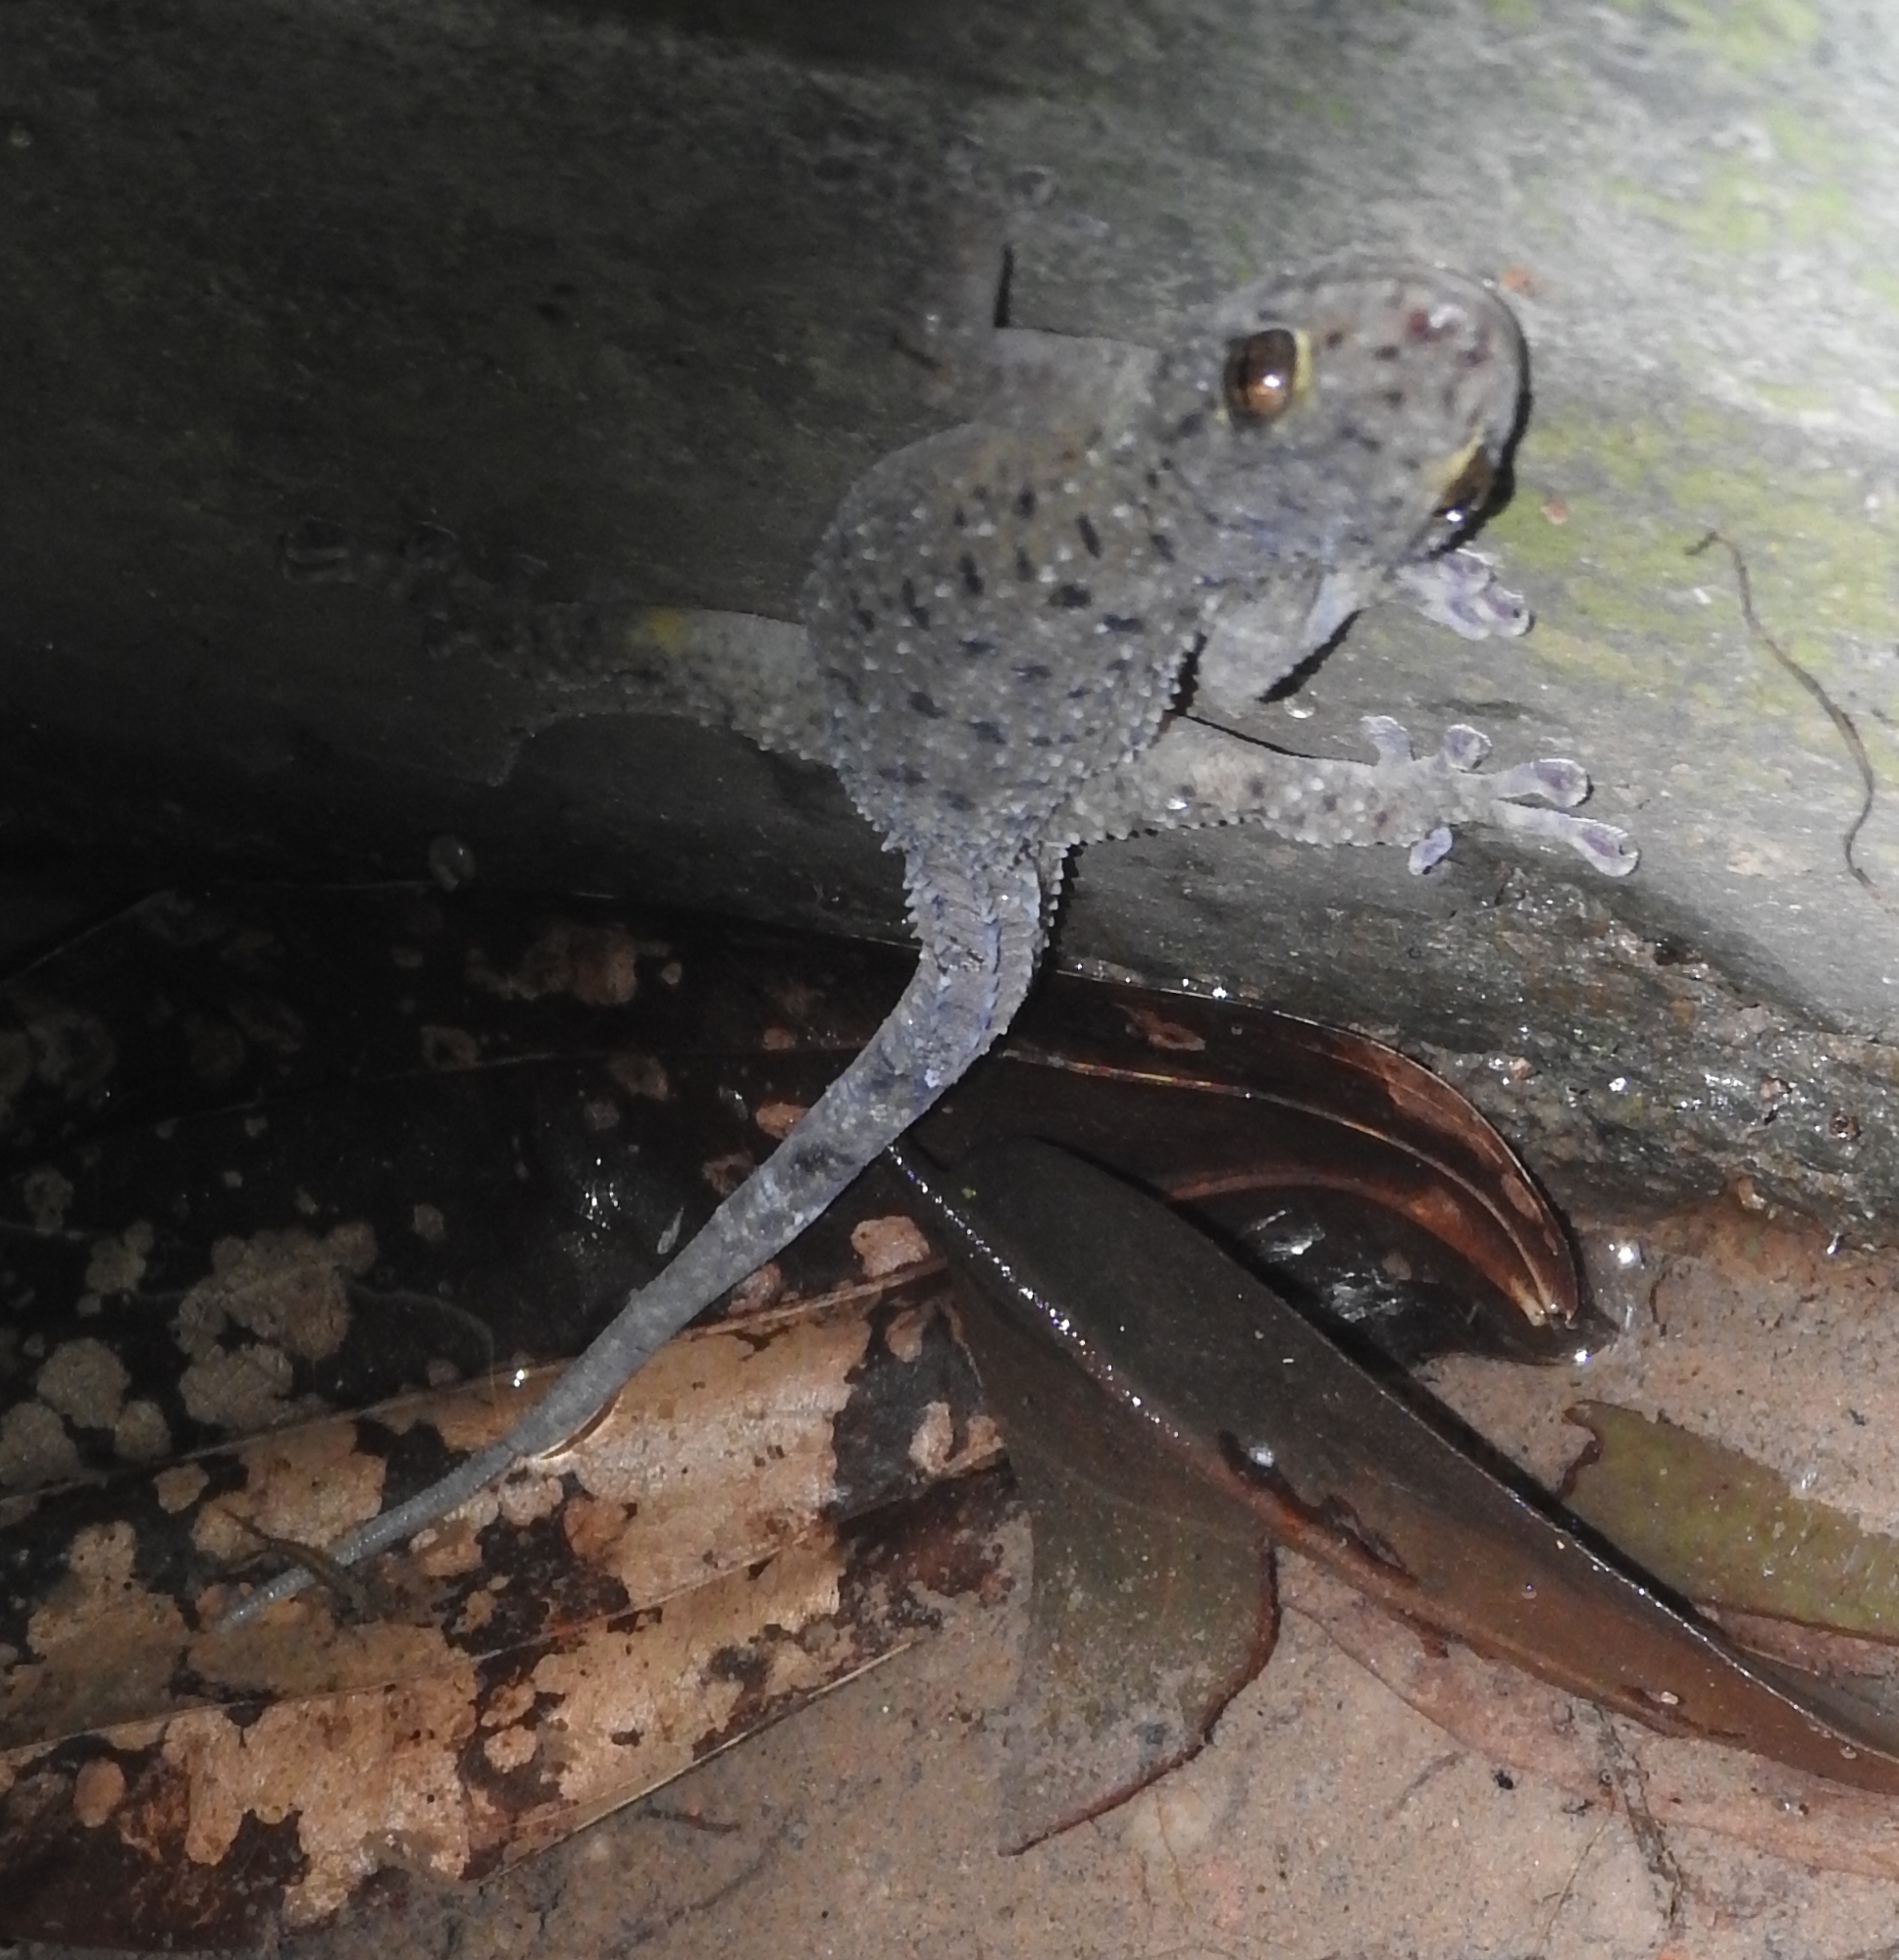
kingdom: Animalia
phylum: Chordata
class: Squamata
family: Gekkonidae
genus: Gekko
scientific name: Gekko monarchus
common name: Spotted house gecko
